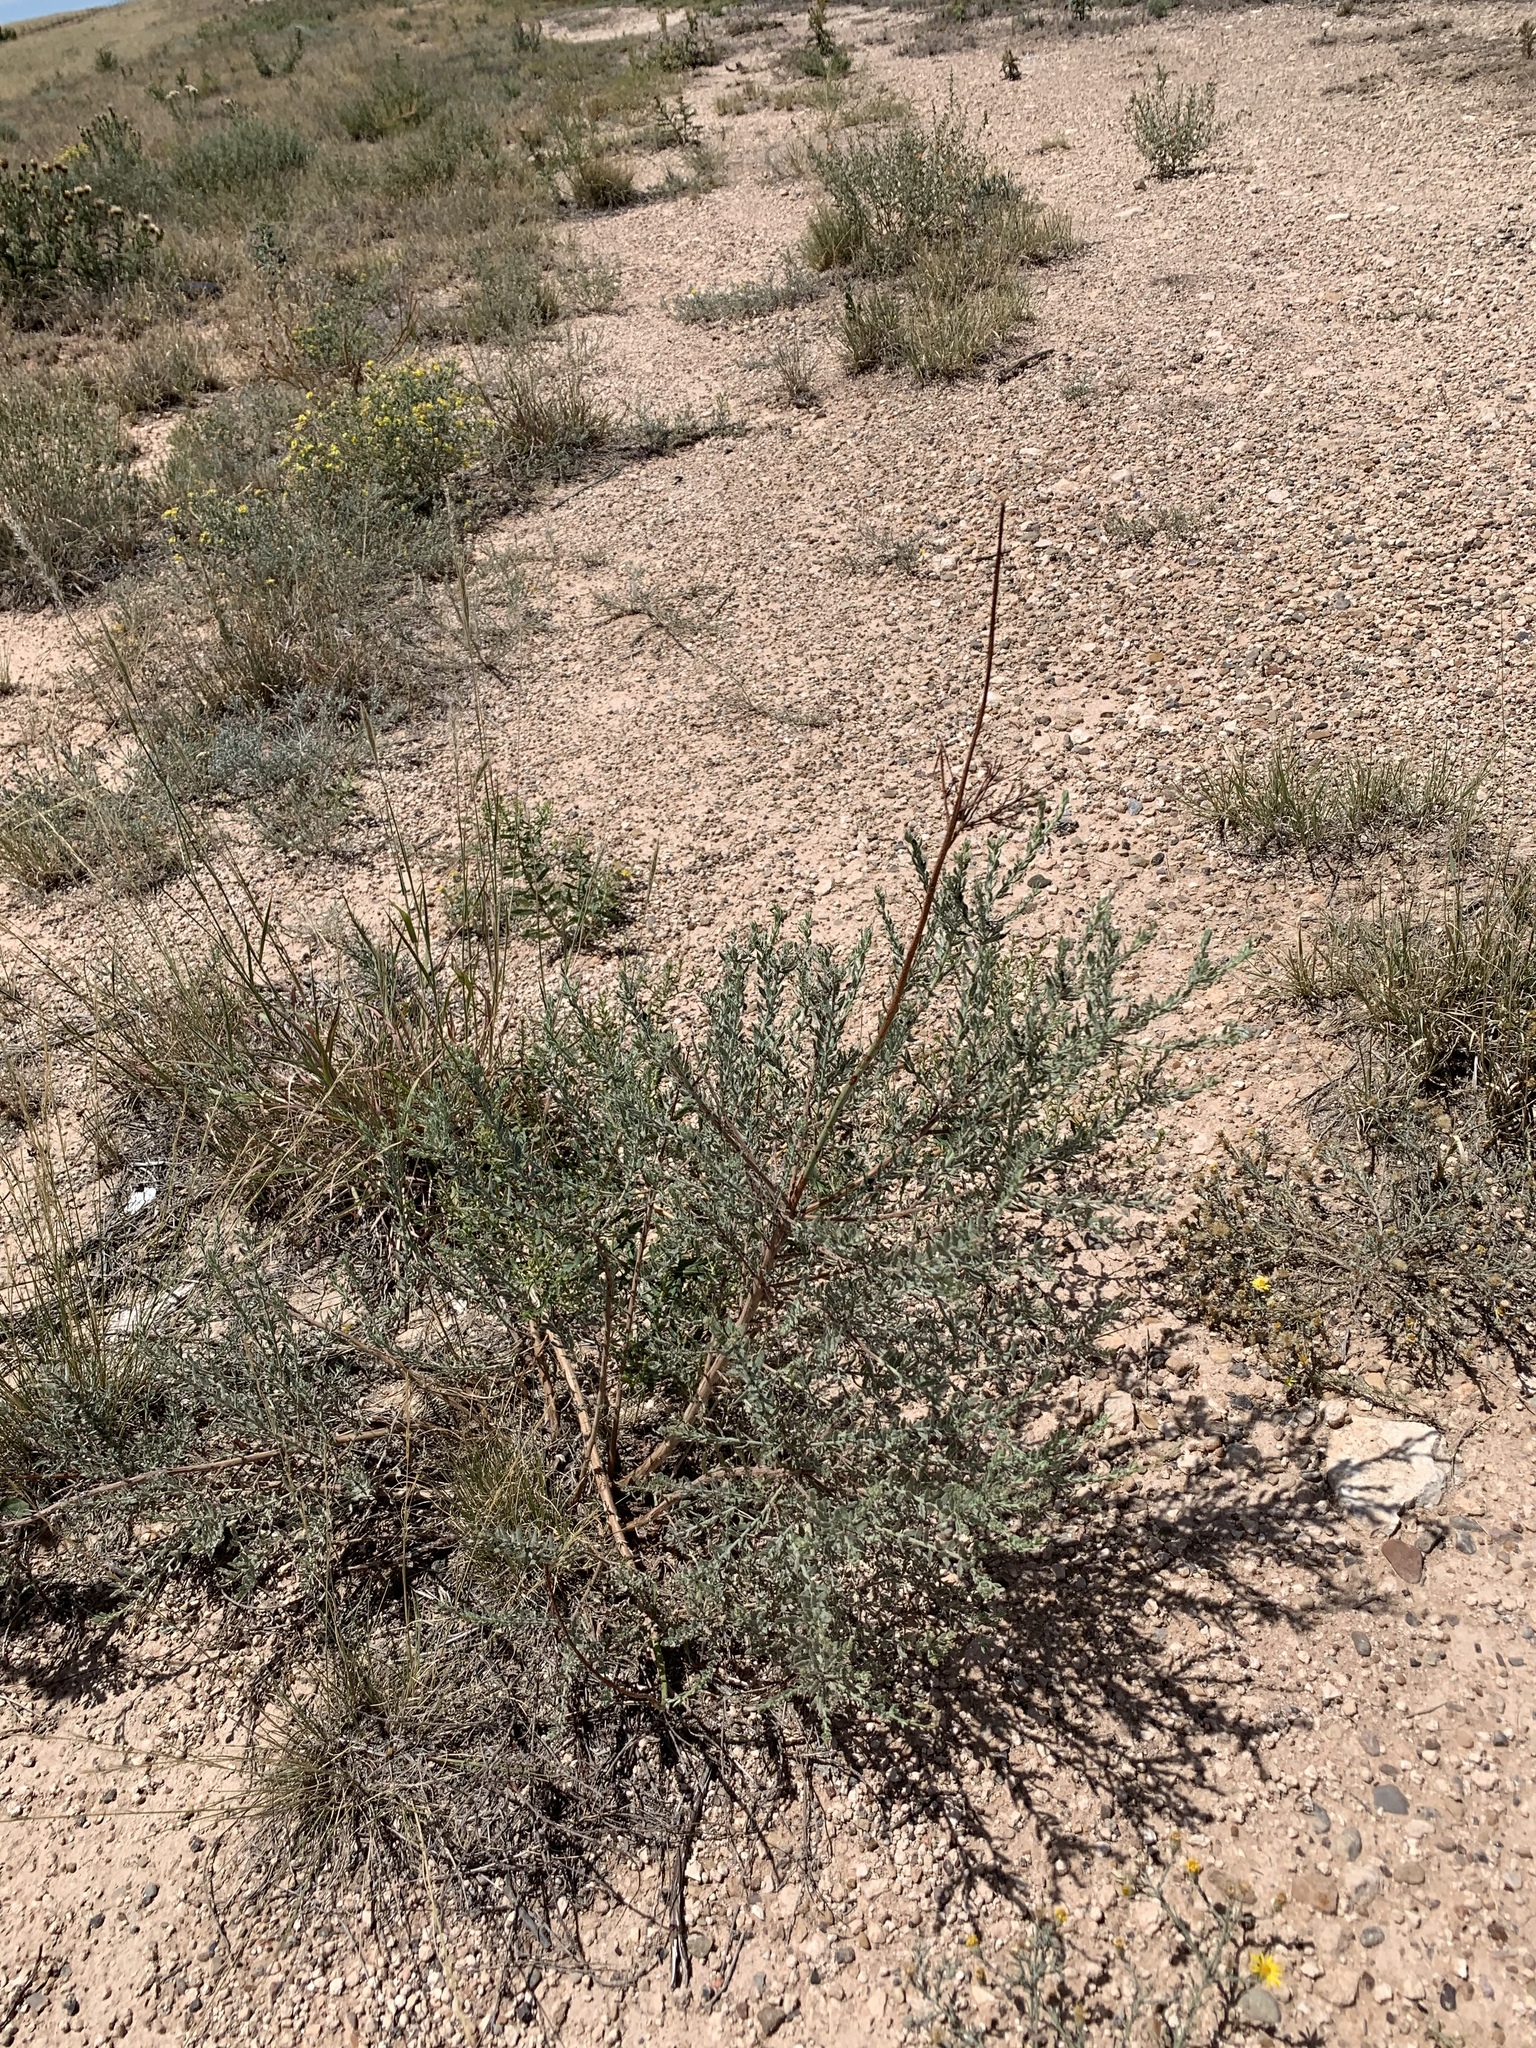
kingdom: Plantae
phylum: Tracheophyta
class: Magnoliopsida
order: Caryophyllales
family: Amaranthaceae
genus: Bassia
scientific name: Bassia scoparia
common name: Belvedere
